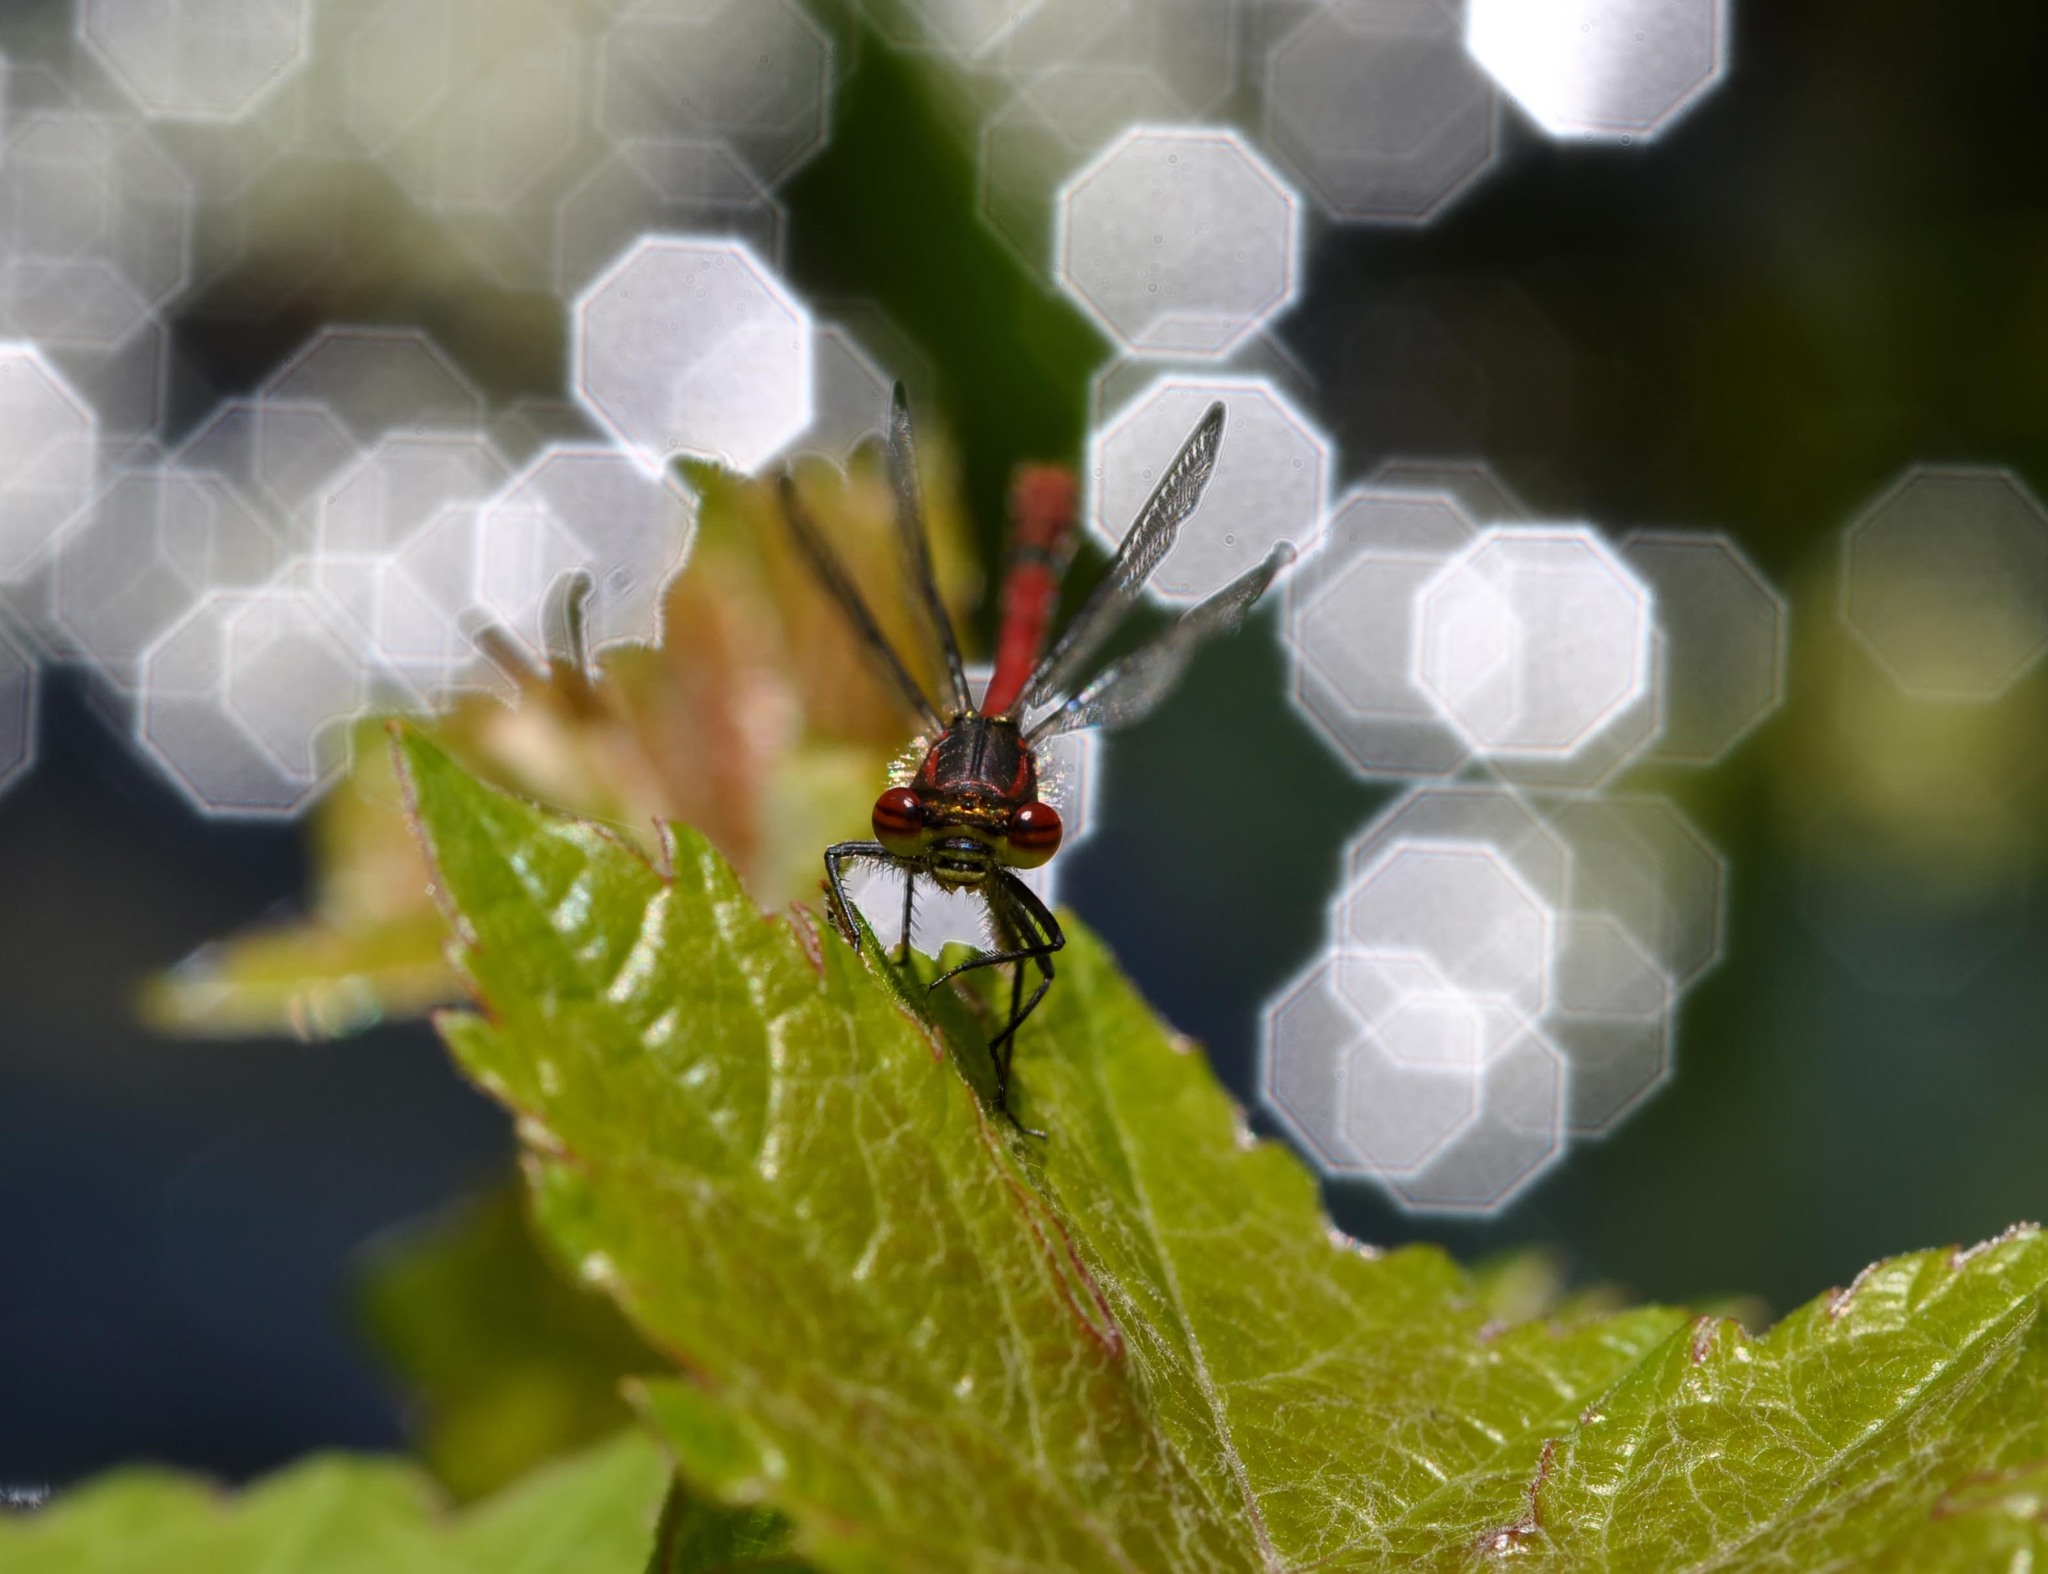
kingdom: Animalia
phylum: Arthropoda
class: Insecta
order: Odonata
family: Coenagrionidae
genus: Pyrrhosoma
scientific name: Pyrrhosoma nymphula
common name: Large red damsel
